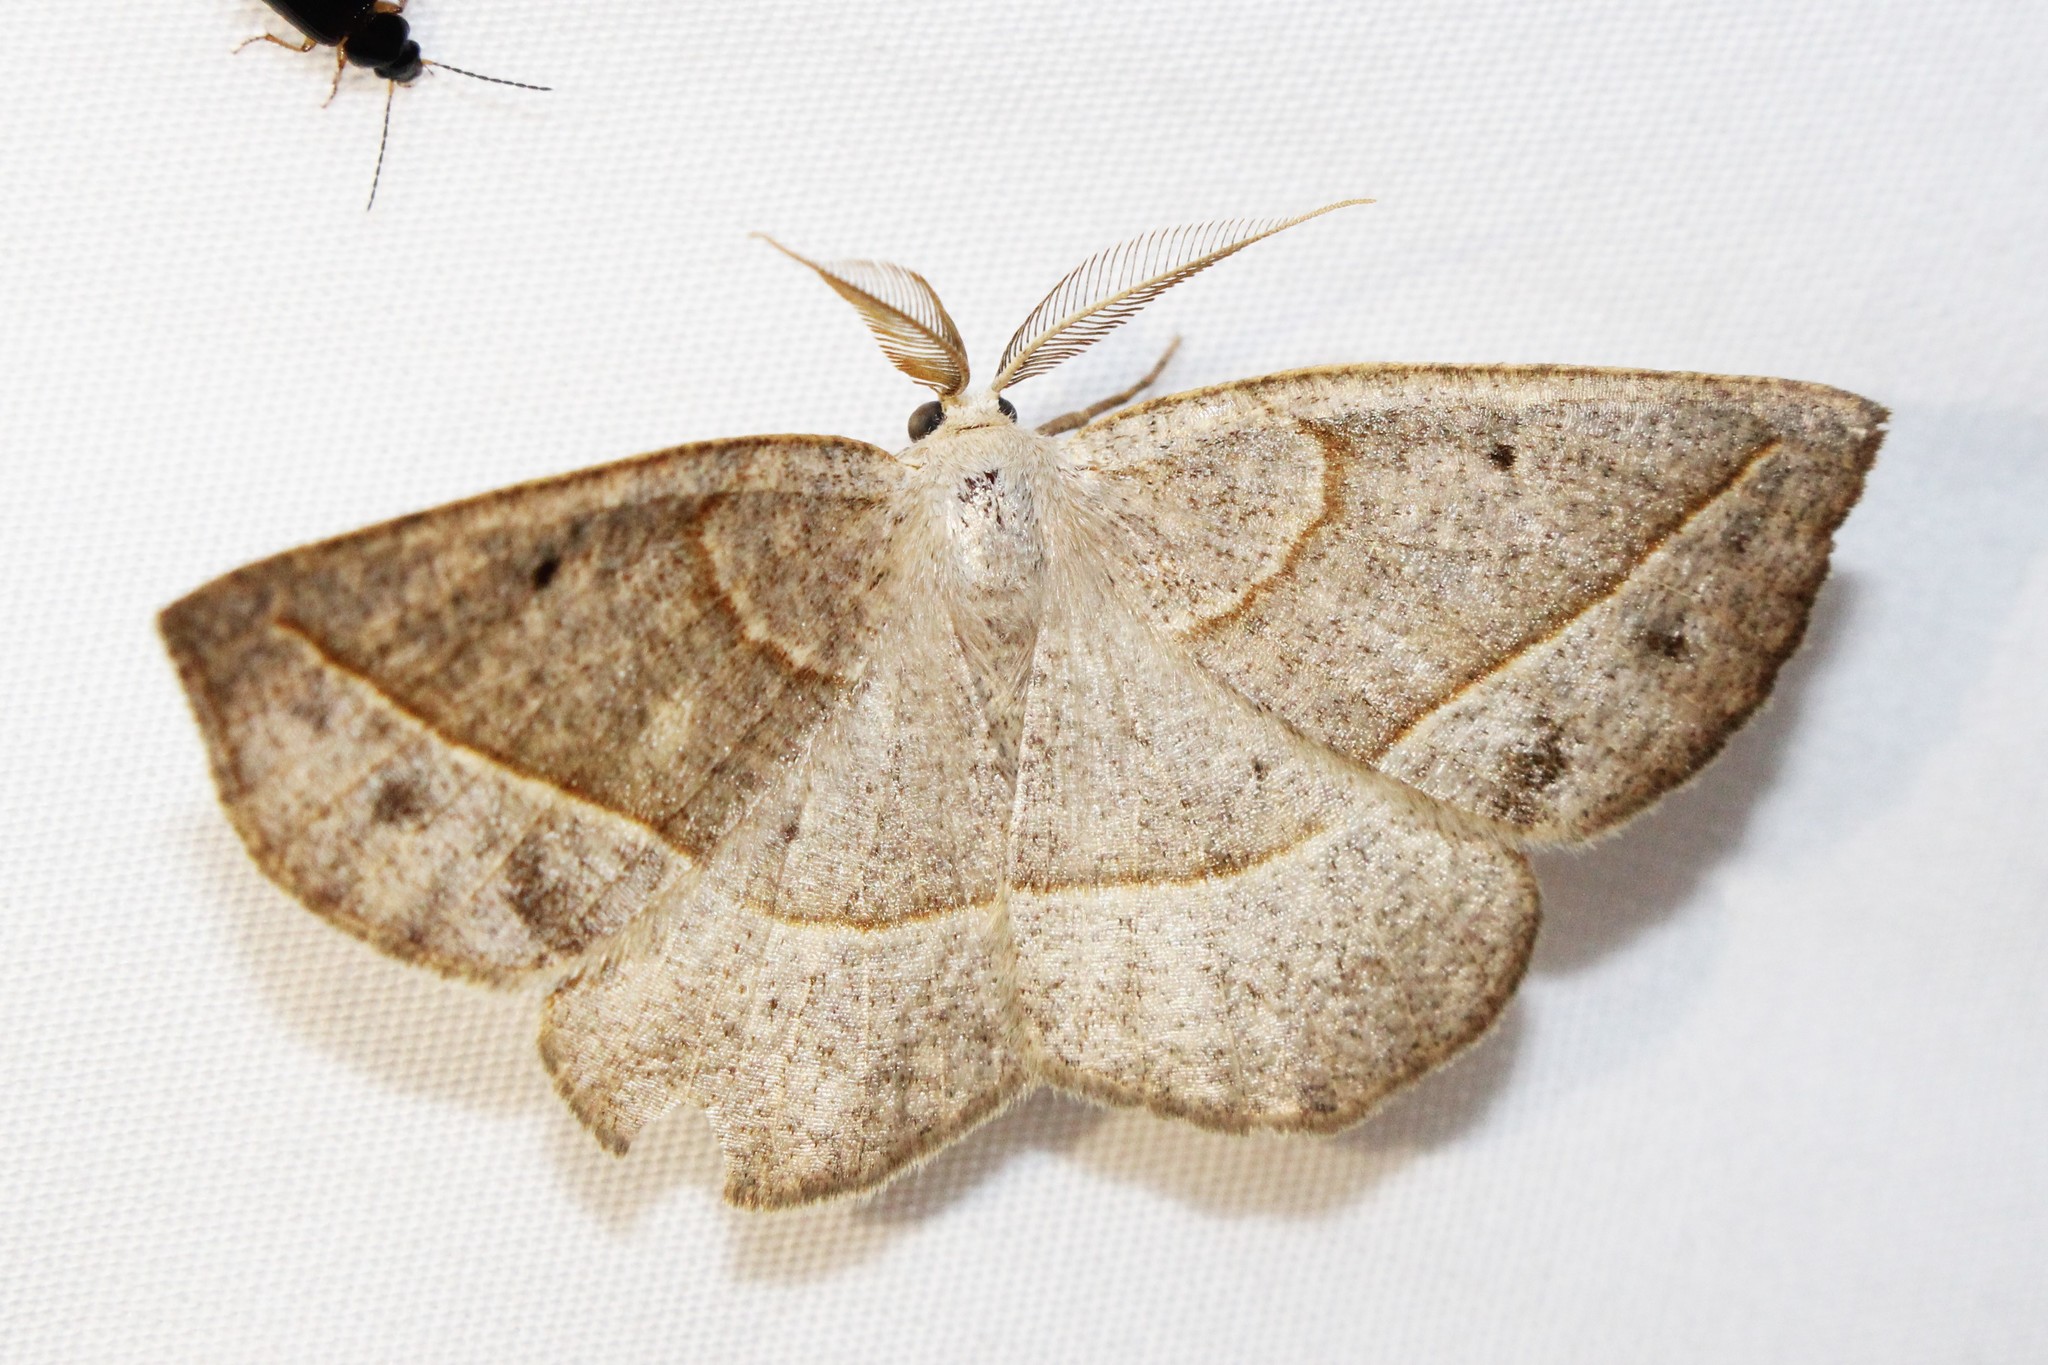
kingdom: Animalia
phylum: Arthropoda
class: Insecta
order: Lepidoptera
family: Geometridae
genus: Eusarca
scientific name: Eusarca confusaria
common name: Confused eusarca
